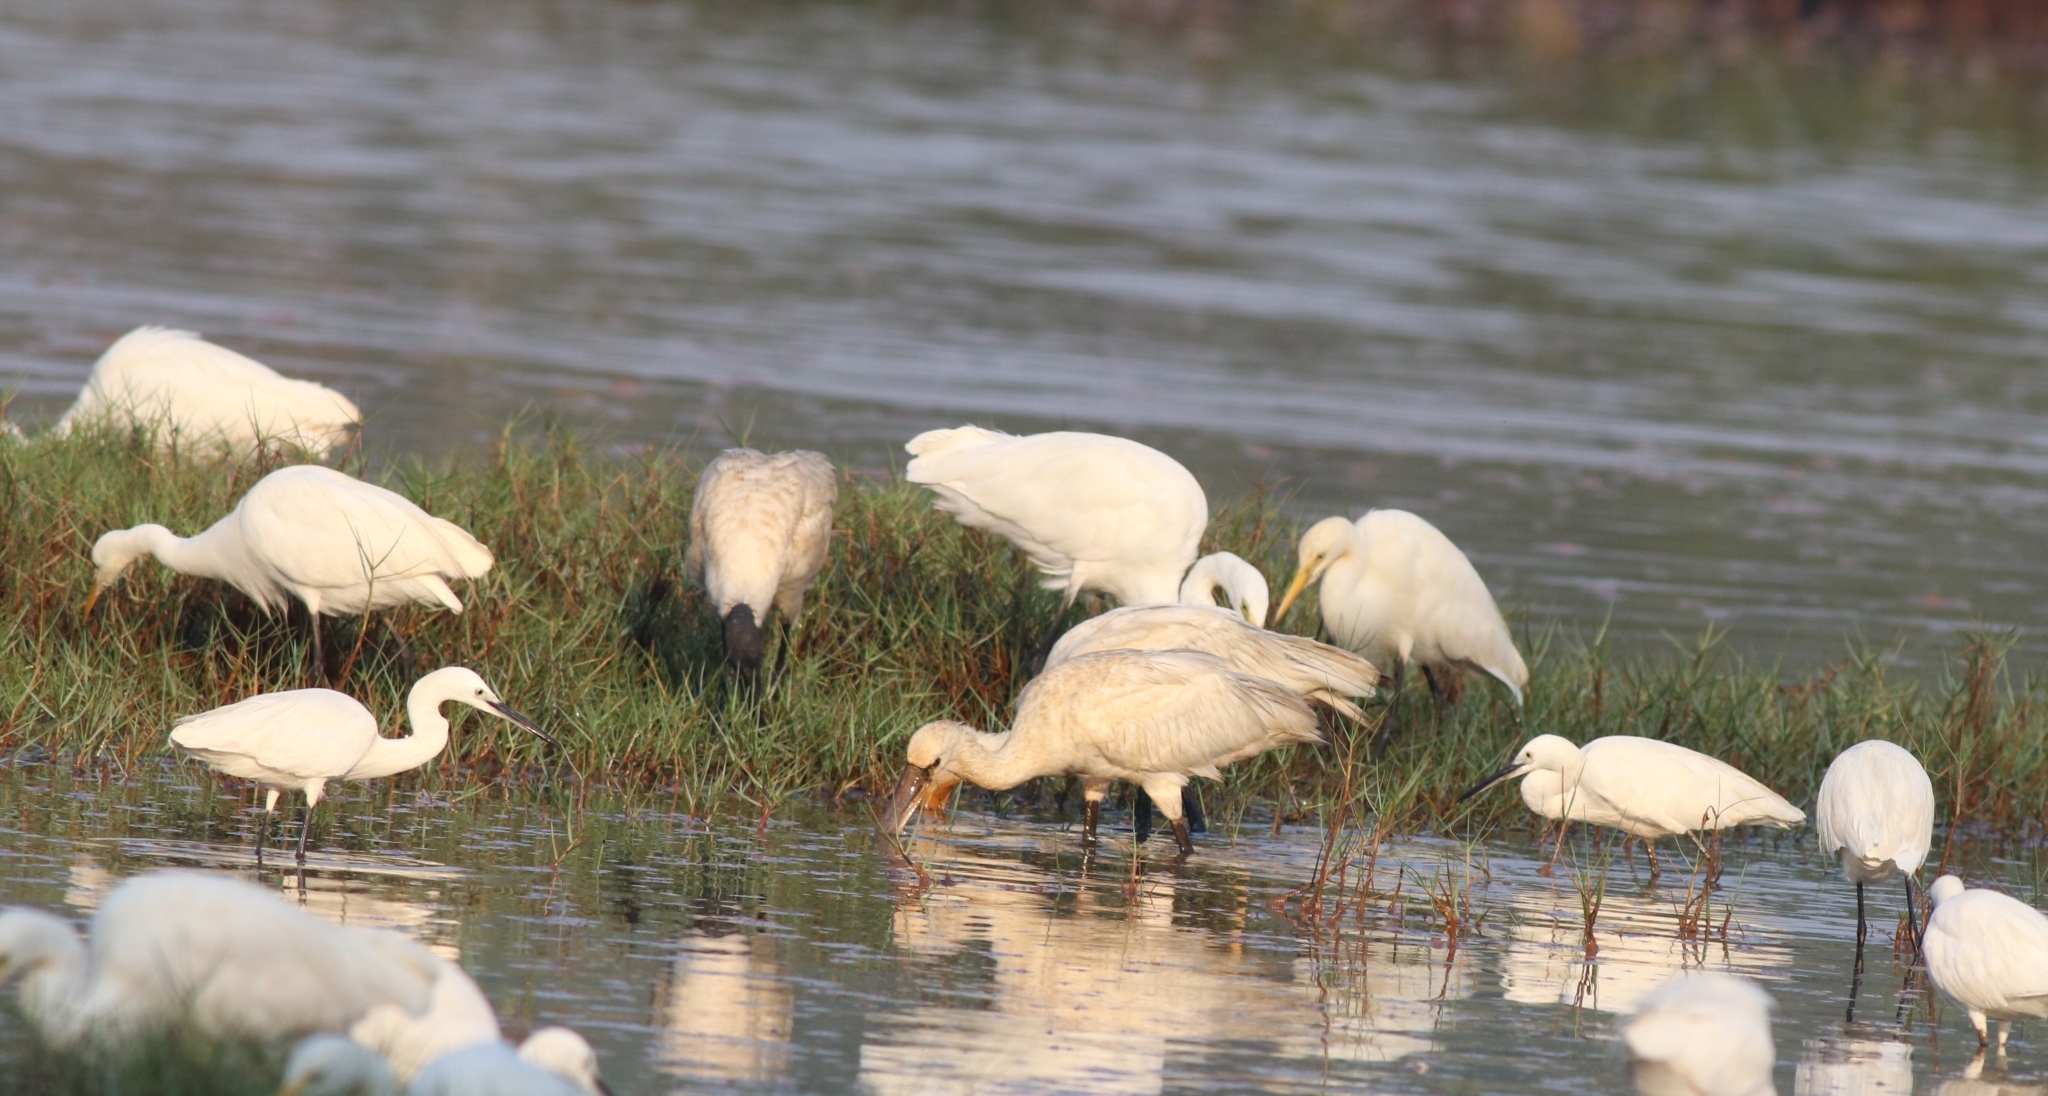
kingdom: Animalia
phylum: Chordata
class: Aves
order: Pelecaniformes
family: Threskiornithidae
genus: Platalea
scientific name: Platalea leucorodia
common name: Eurasian spoonbill
